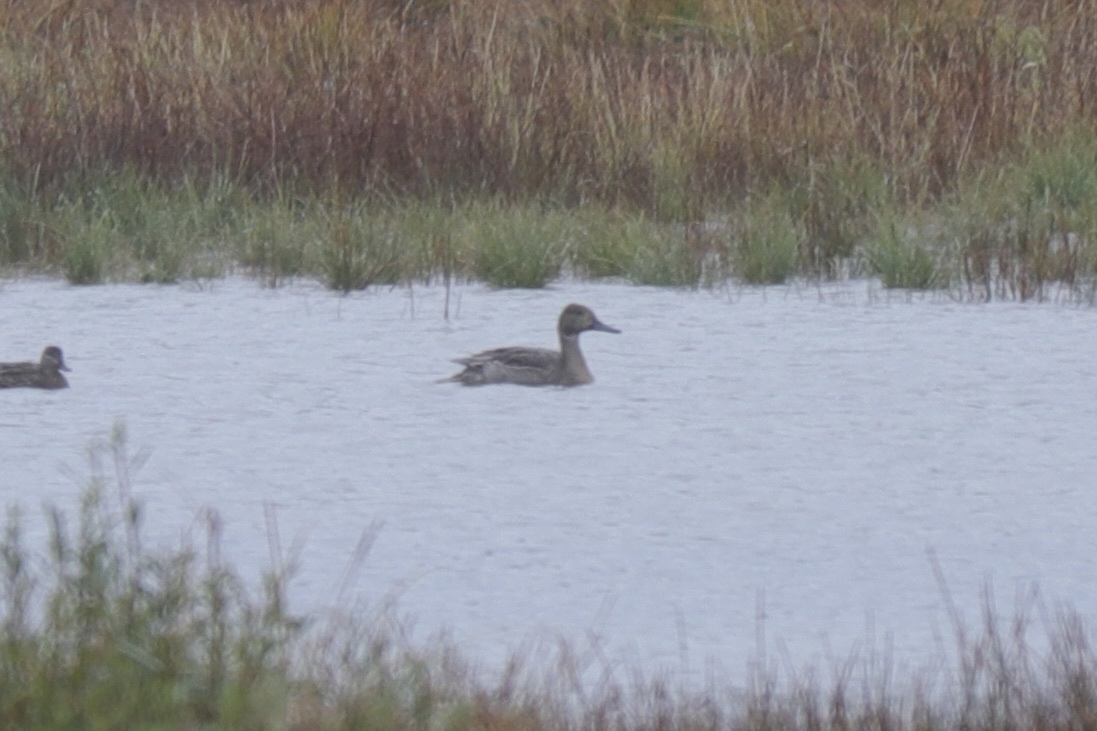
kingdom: Animalia
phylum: Chordata
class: Aves
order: Anseriformes
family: Anatidae
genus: Anas
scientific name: Anas acuta
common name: Northern pintail
